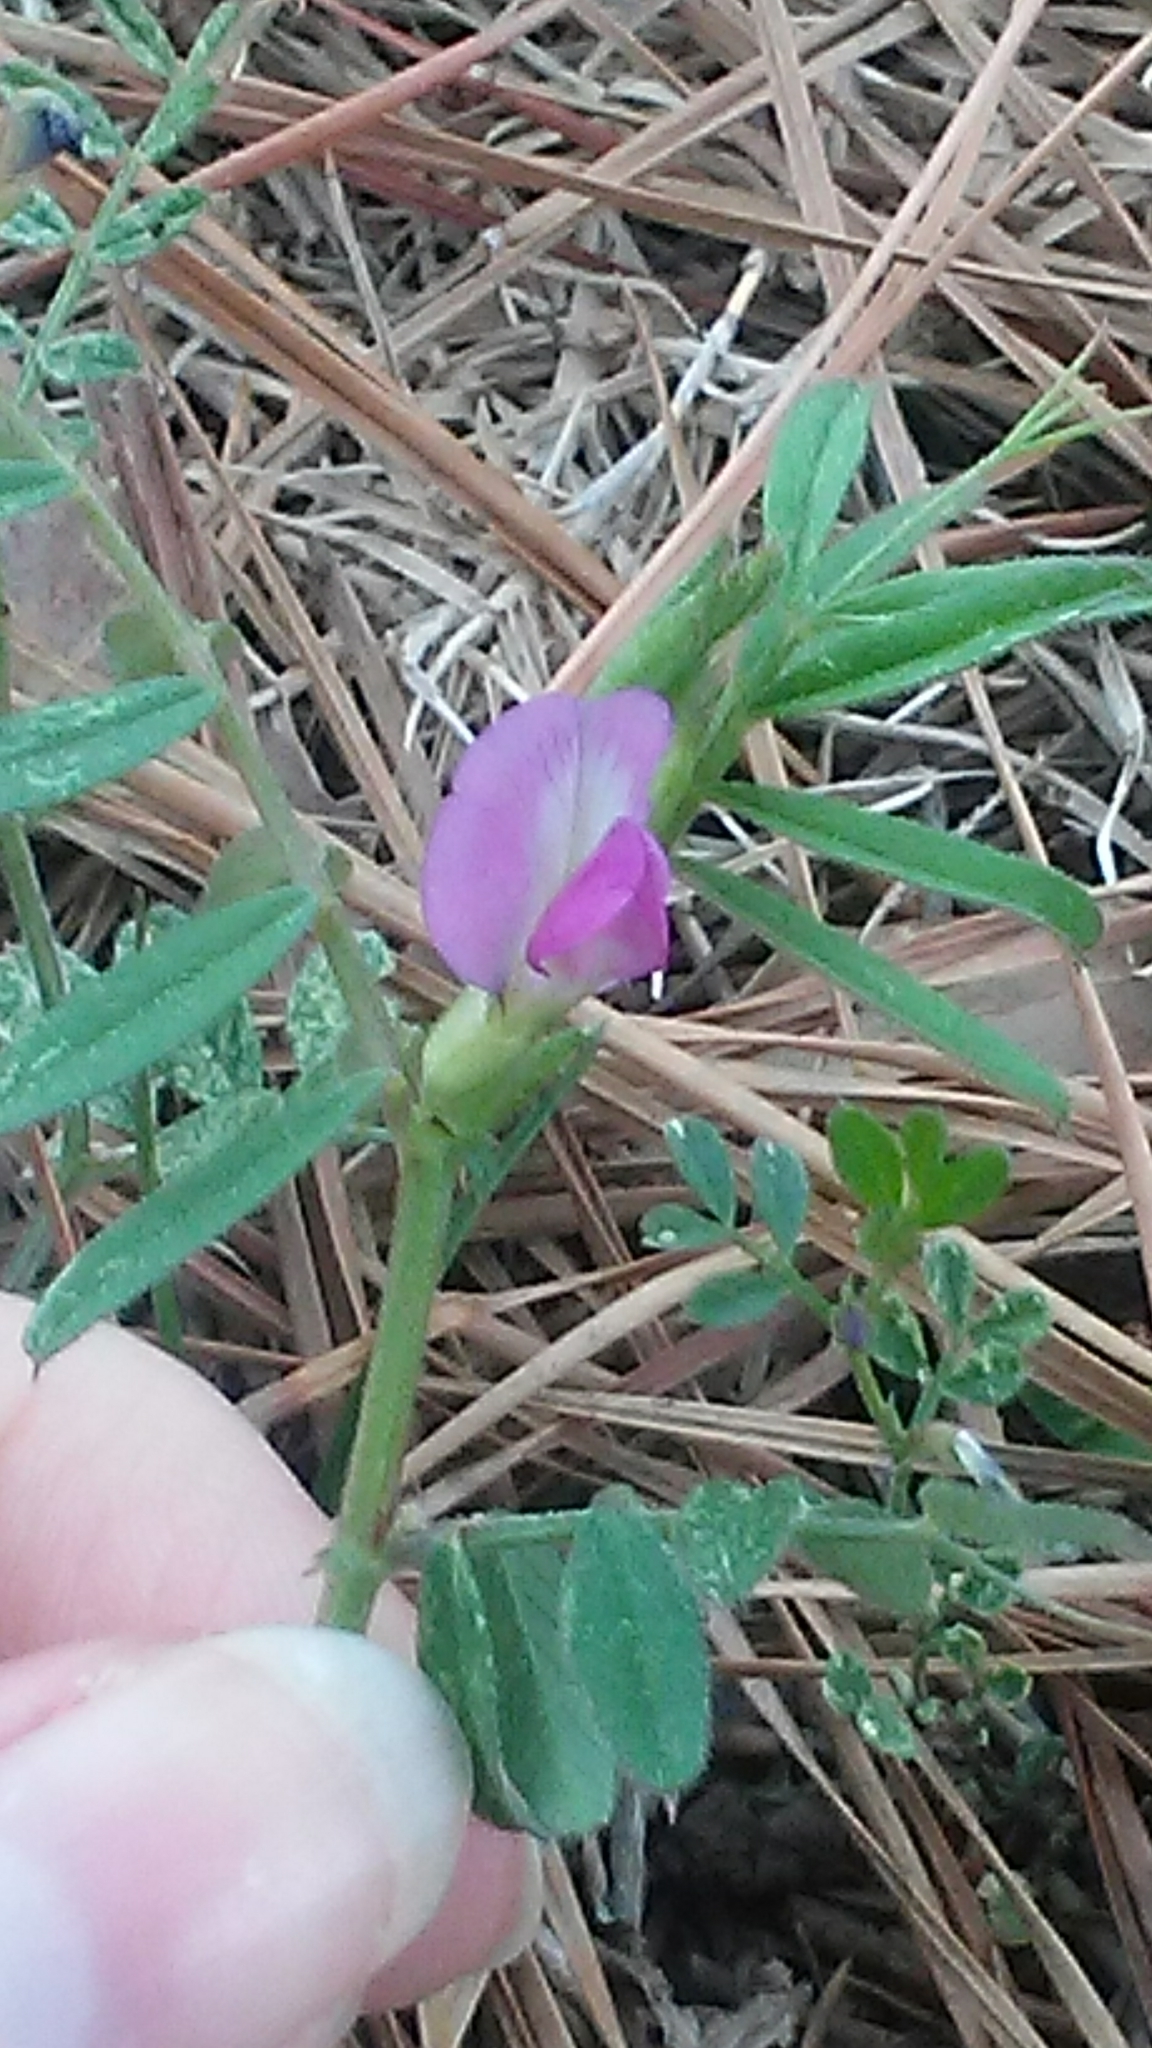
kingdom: Plantae
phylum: Tracheophyta
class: Magnoliopsida
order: Fabales
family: Fabaceae
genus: Vicia
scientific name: Vicia sativa
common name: Garden vetch
